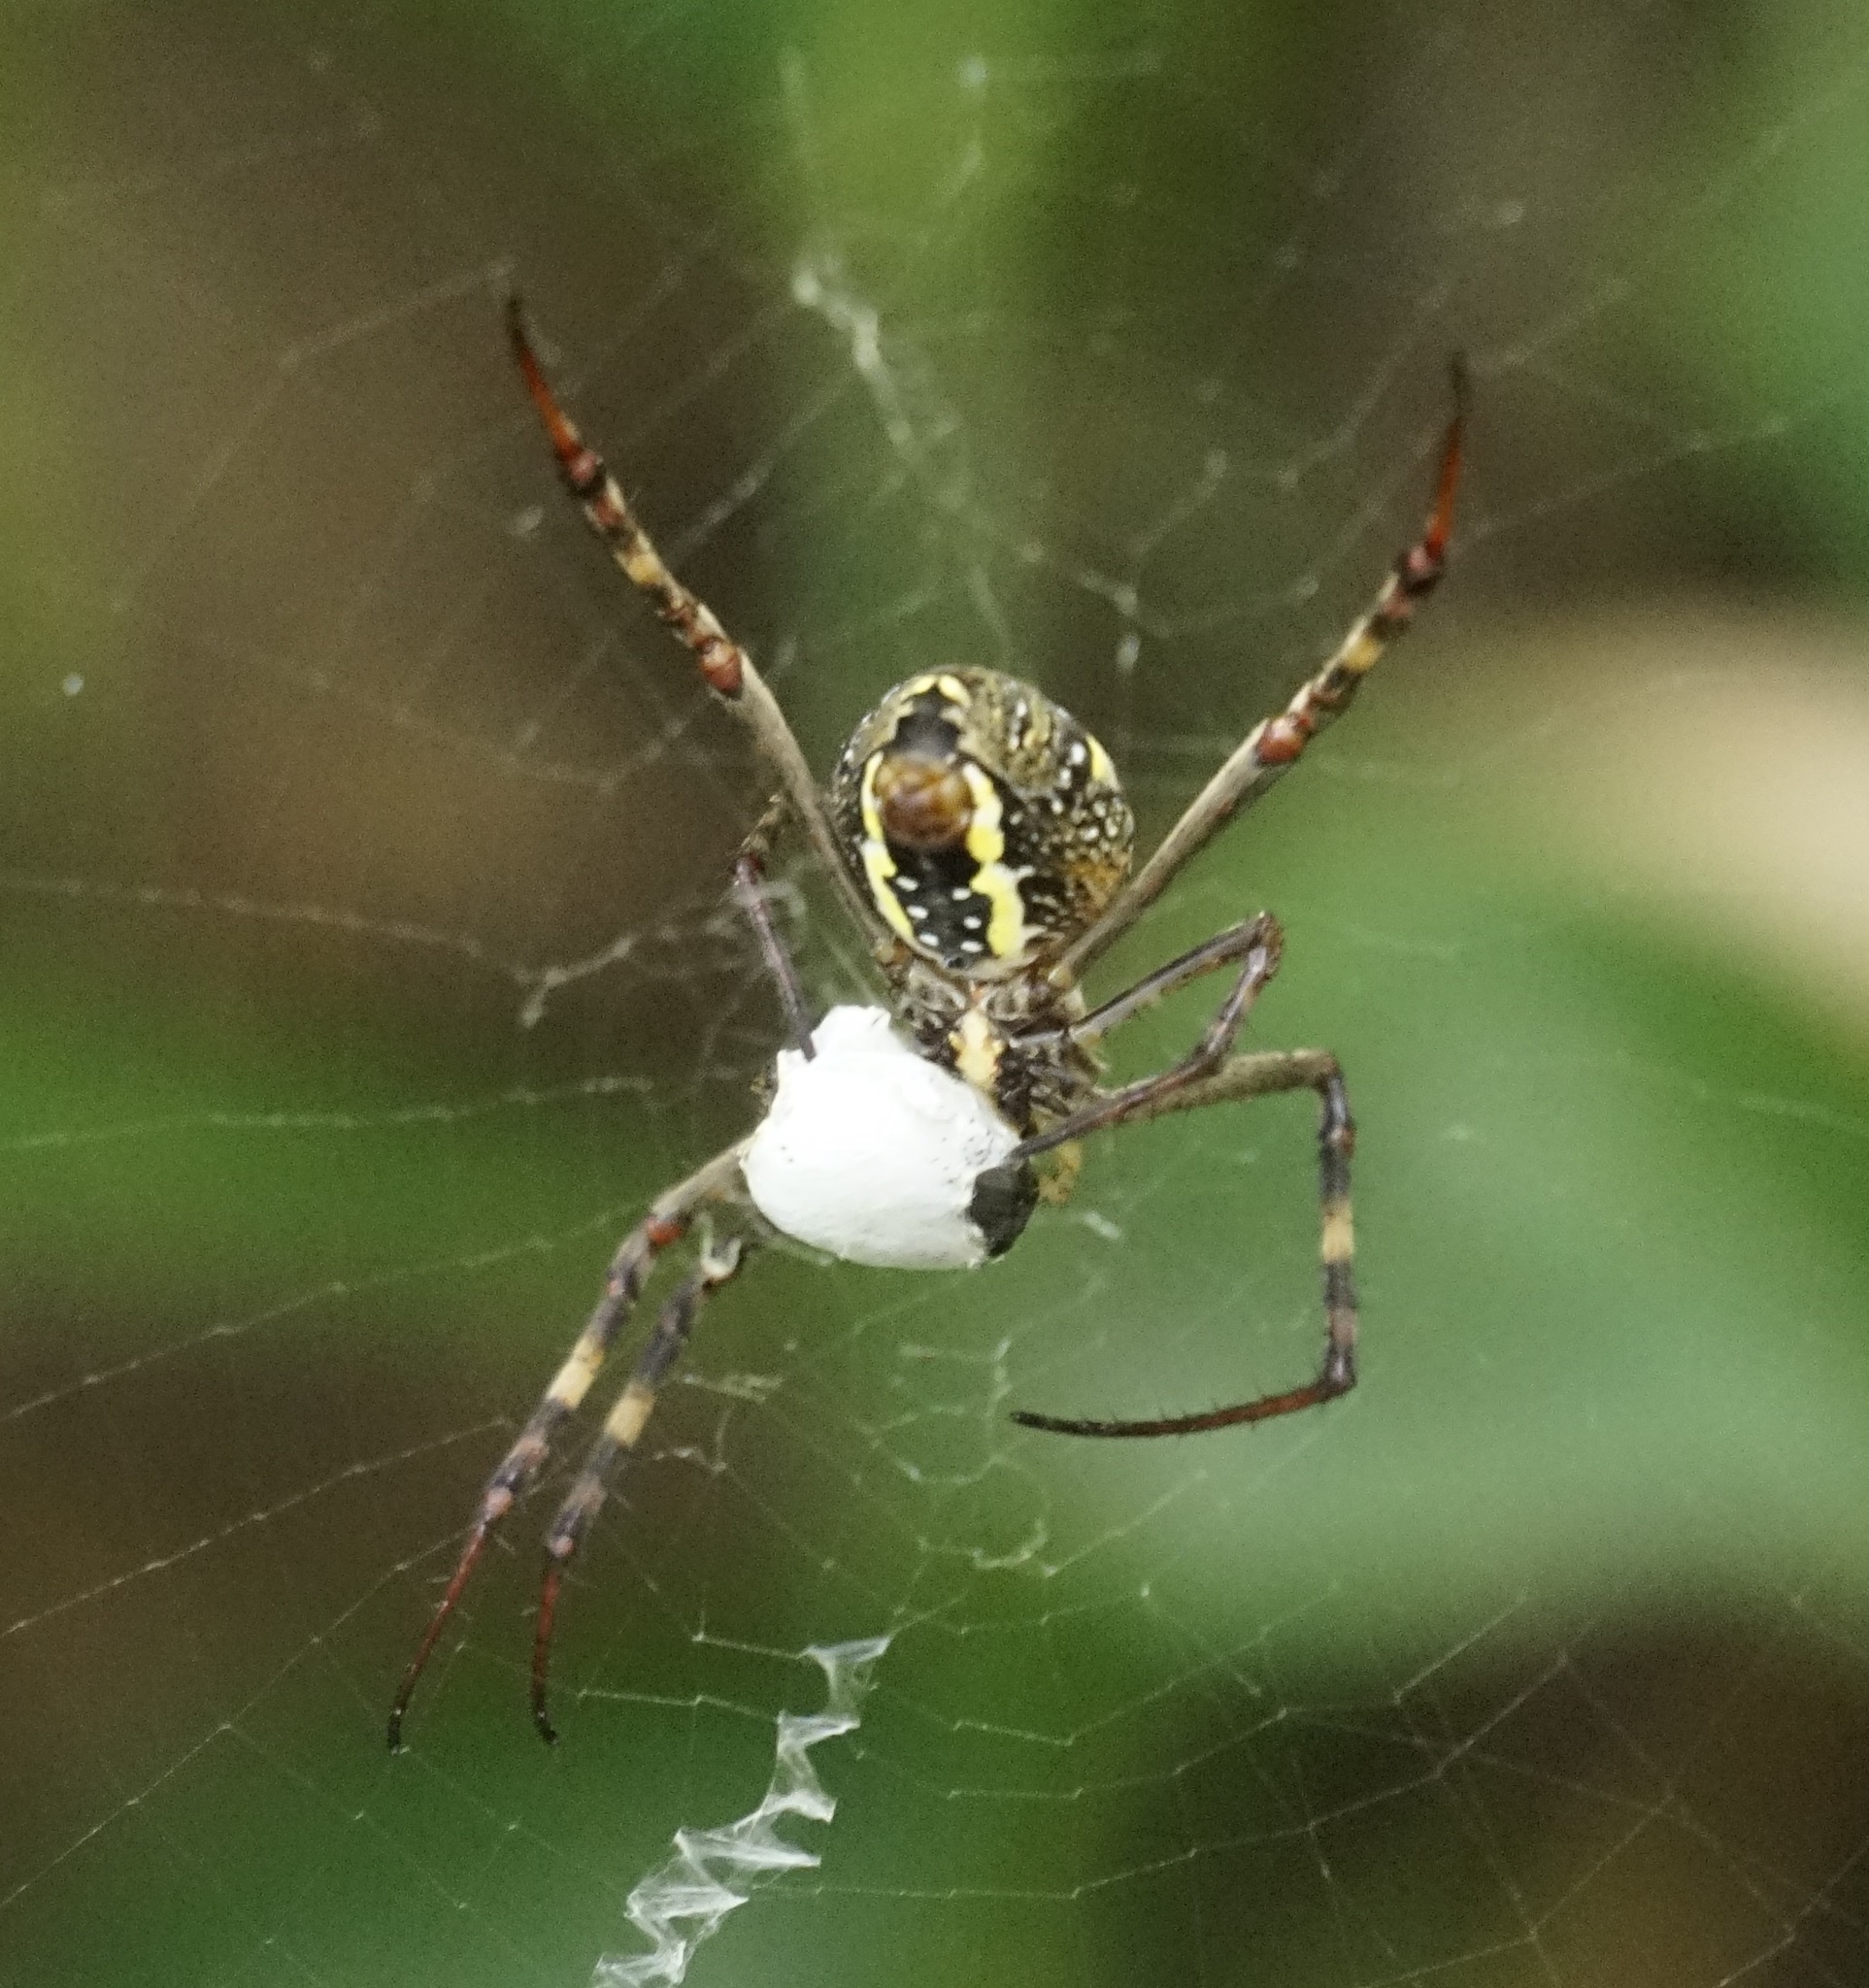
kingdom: Animalia
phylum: Arthropoda
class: Arachnida
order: Araneae
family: Araneidae
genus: Argiope
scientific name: Argiope keyserlingi
